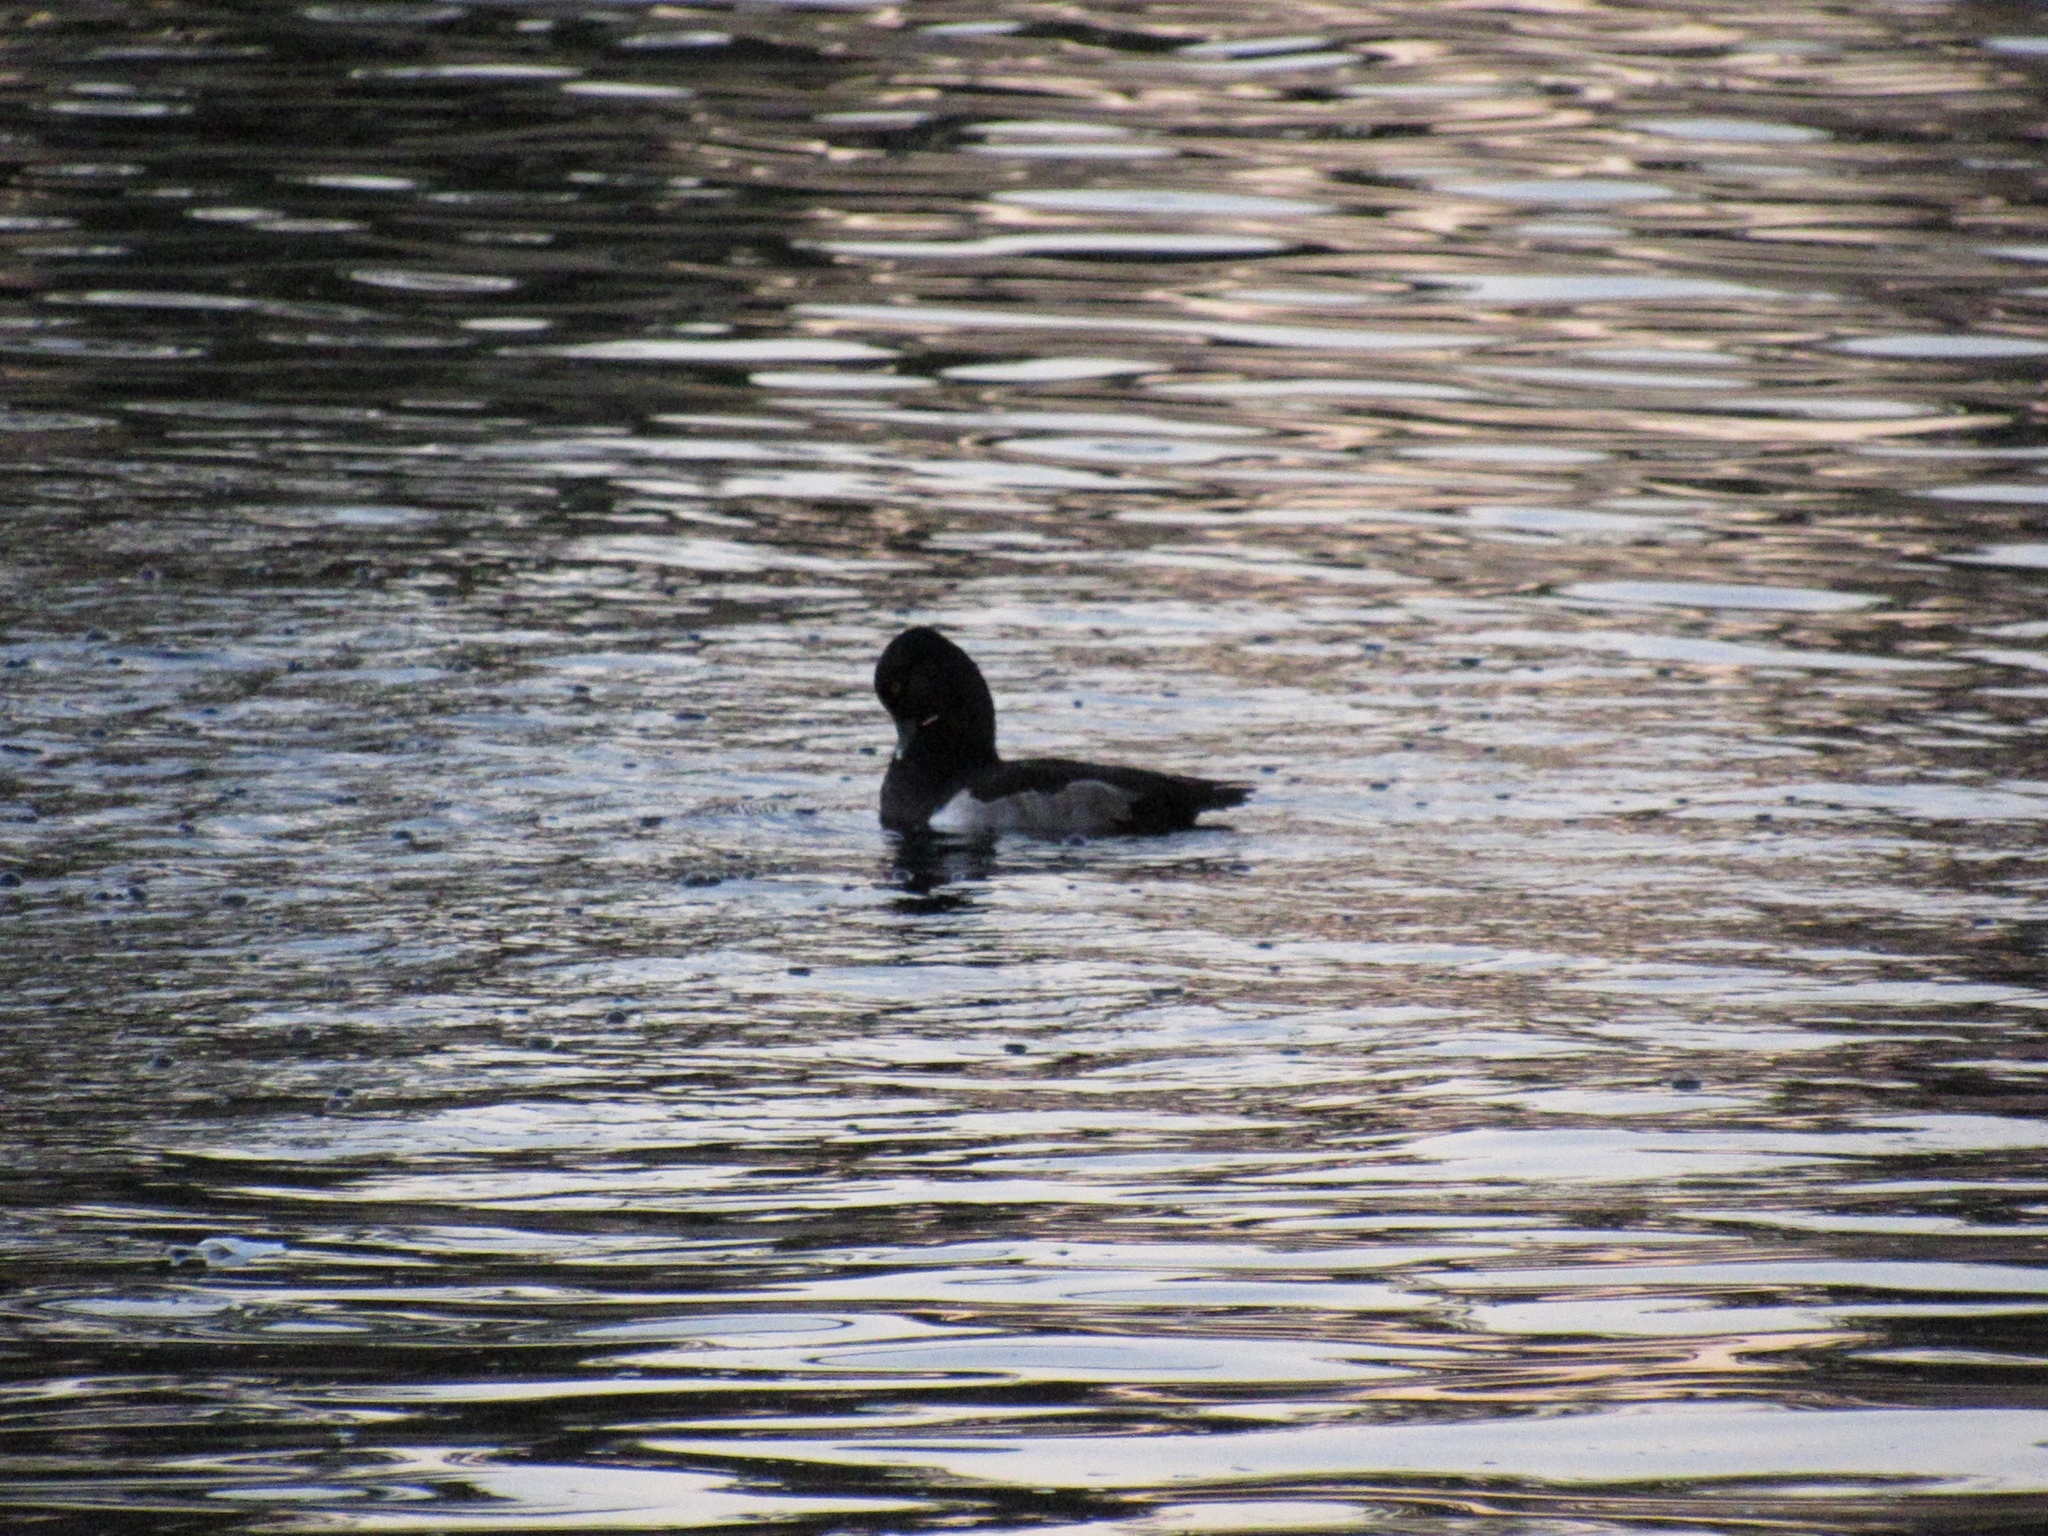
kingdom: Animalia
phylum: Chordata
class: Aves
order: Anseriformes
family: Anatidae
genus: Aythya
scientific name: Aythya collaris
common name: Ring-necked duck
